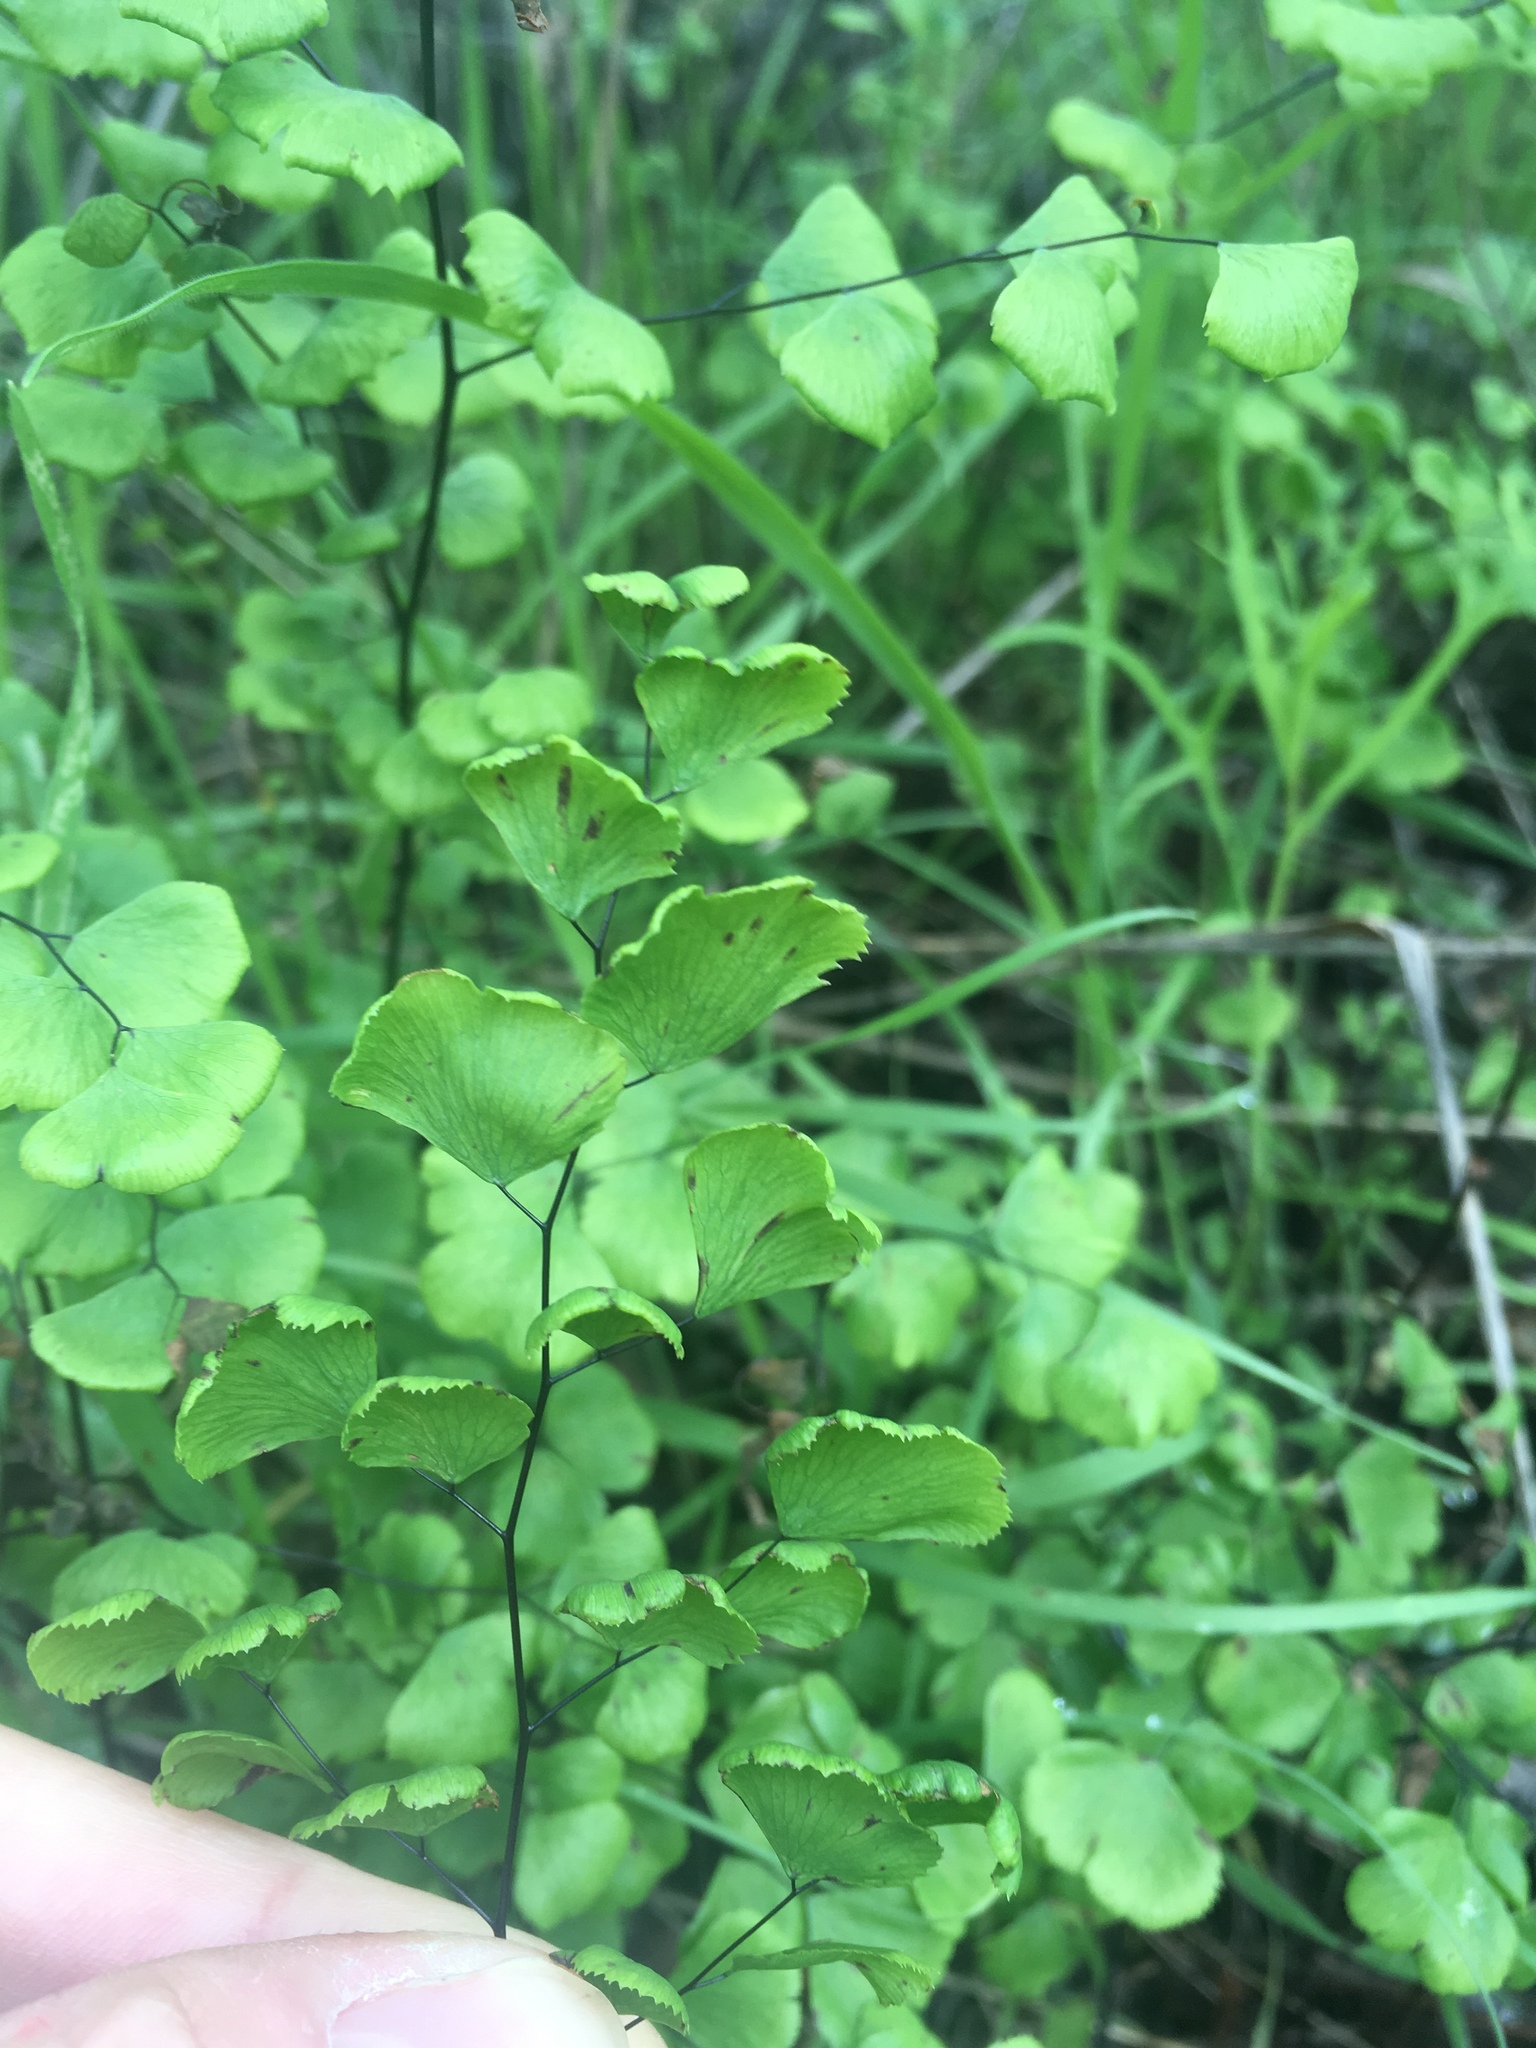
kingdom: Plantae
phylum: Tracheophyta
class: Polypodiopsida
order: Polypodiales
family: Pteridaceae
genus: Adiantum
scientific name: Adiantum jordanii
